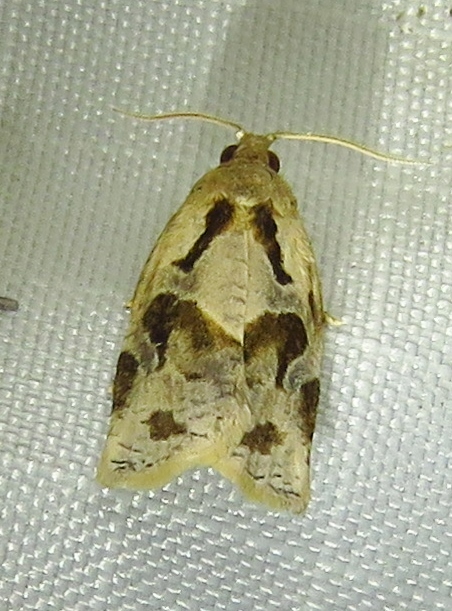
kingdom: Animalia
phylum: Arthropoda
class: Insecta
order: Lepidoptera
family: Tortricidae
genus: Archips
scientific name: Archips grisea
